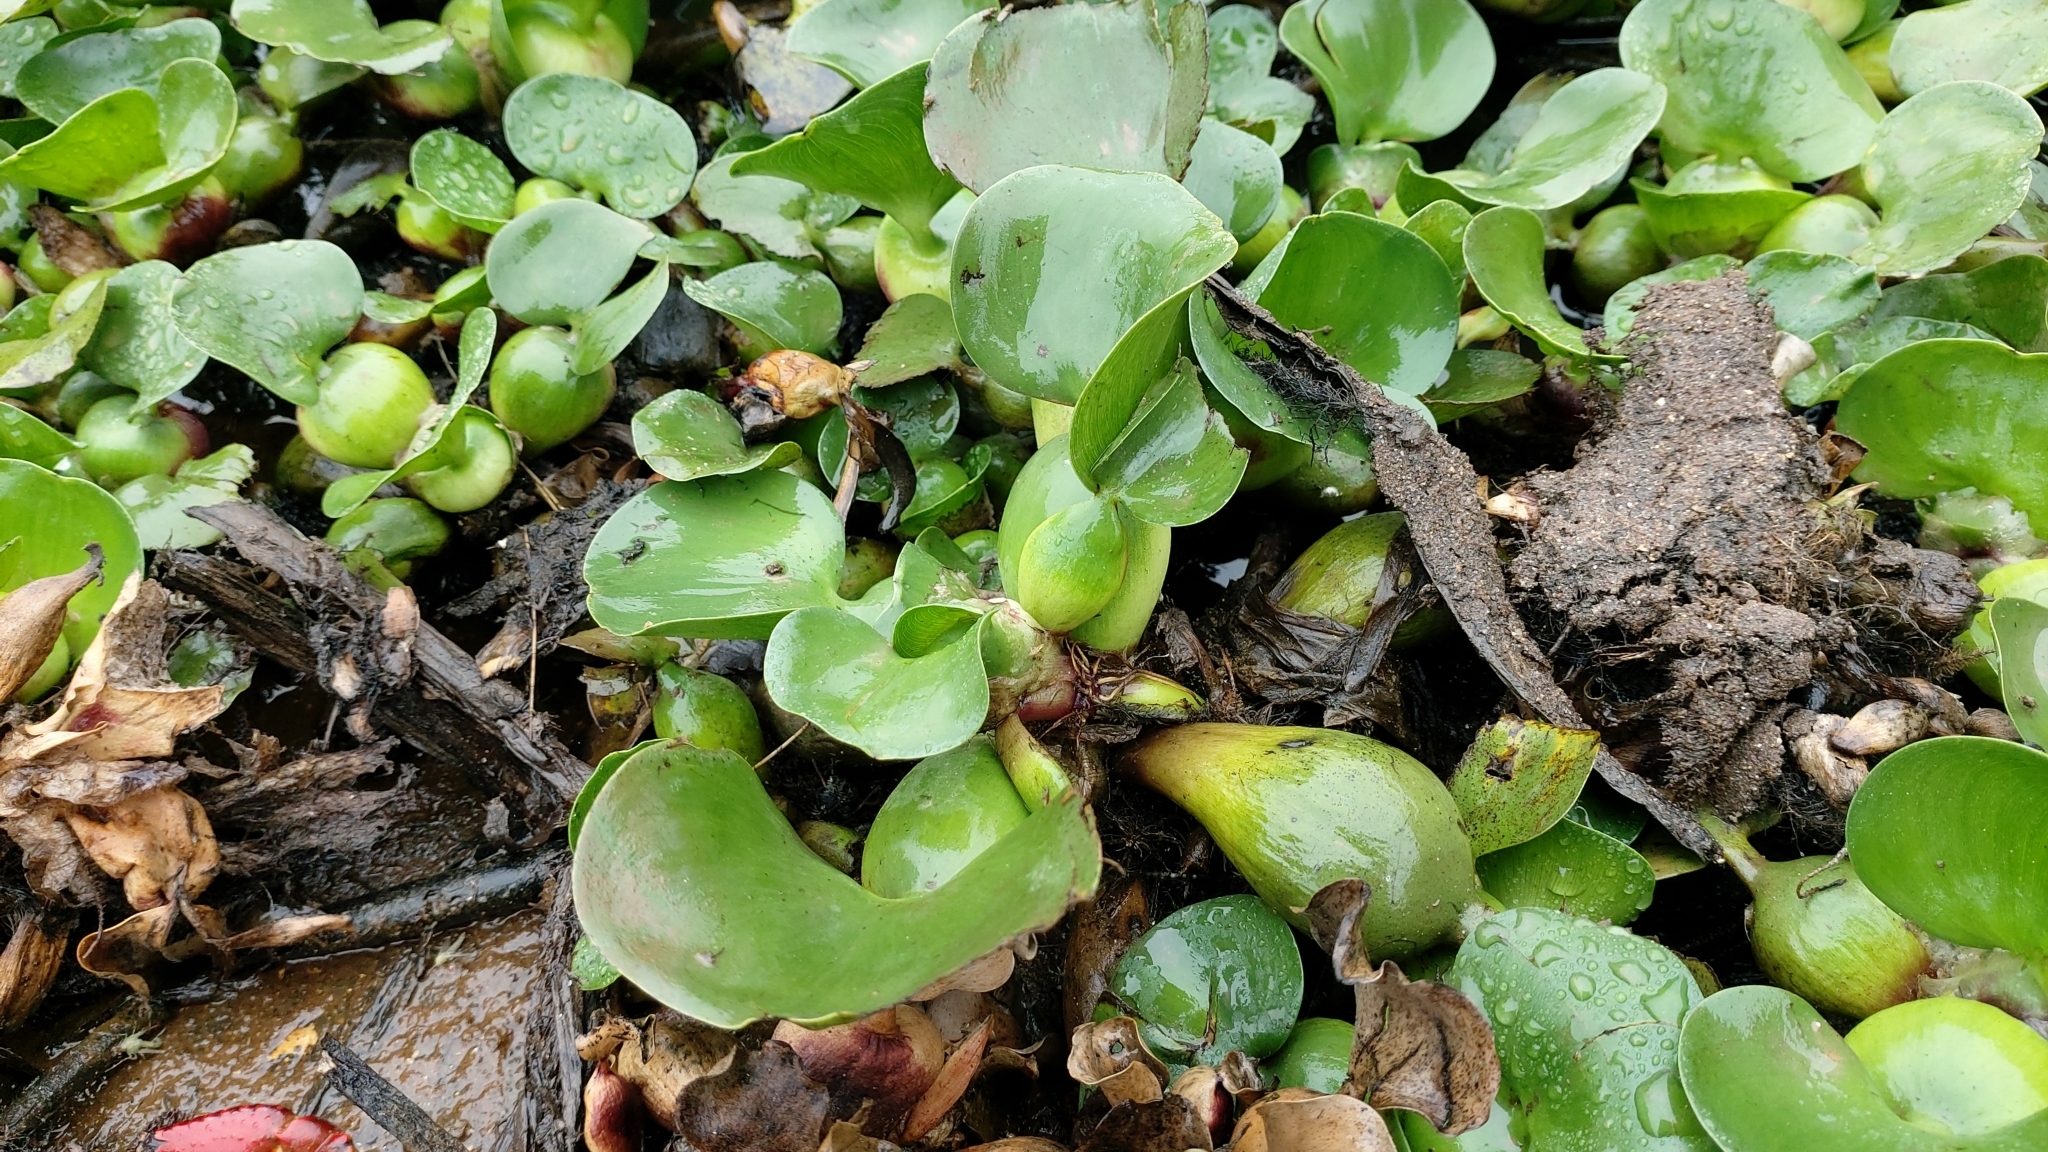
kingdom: Plantae
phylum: Tracheophyta
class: Liliopsida
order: Commelinales
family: Pontederiaceae
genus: Pontederia
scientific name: Pontederia crassipes
